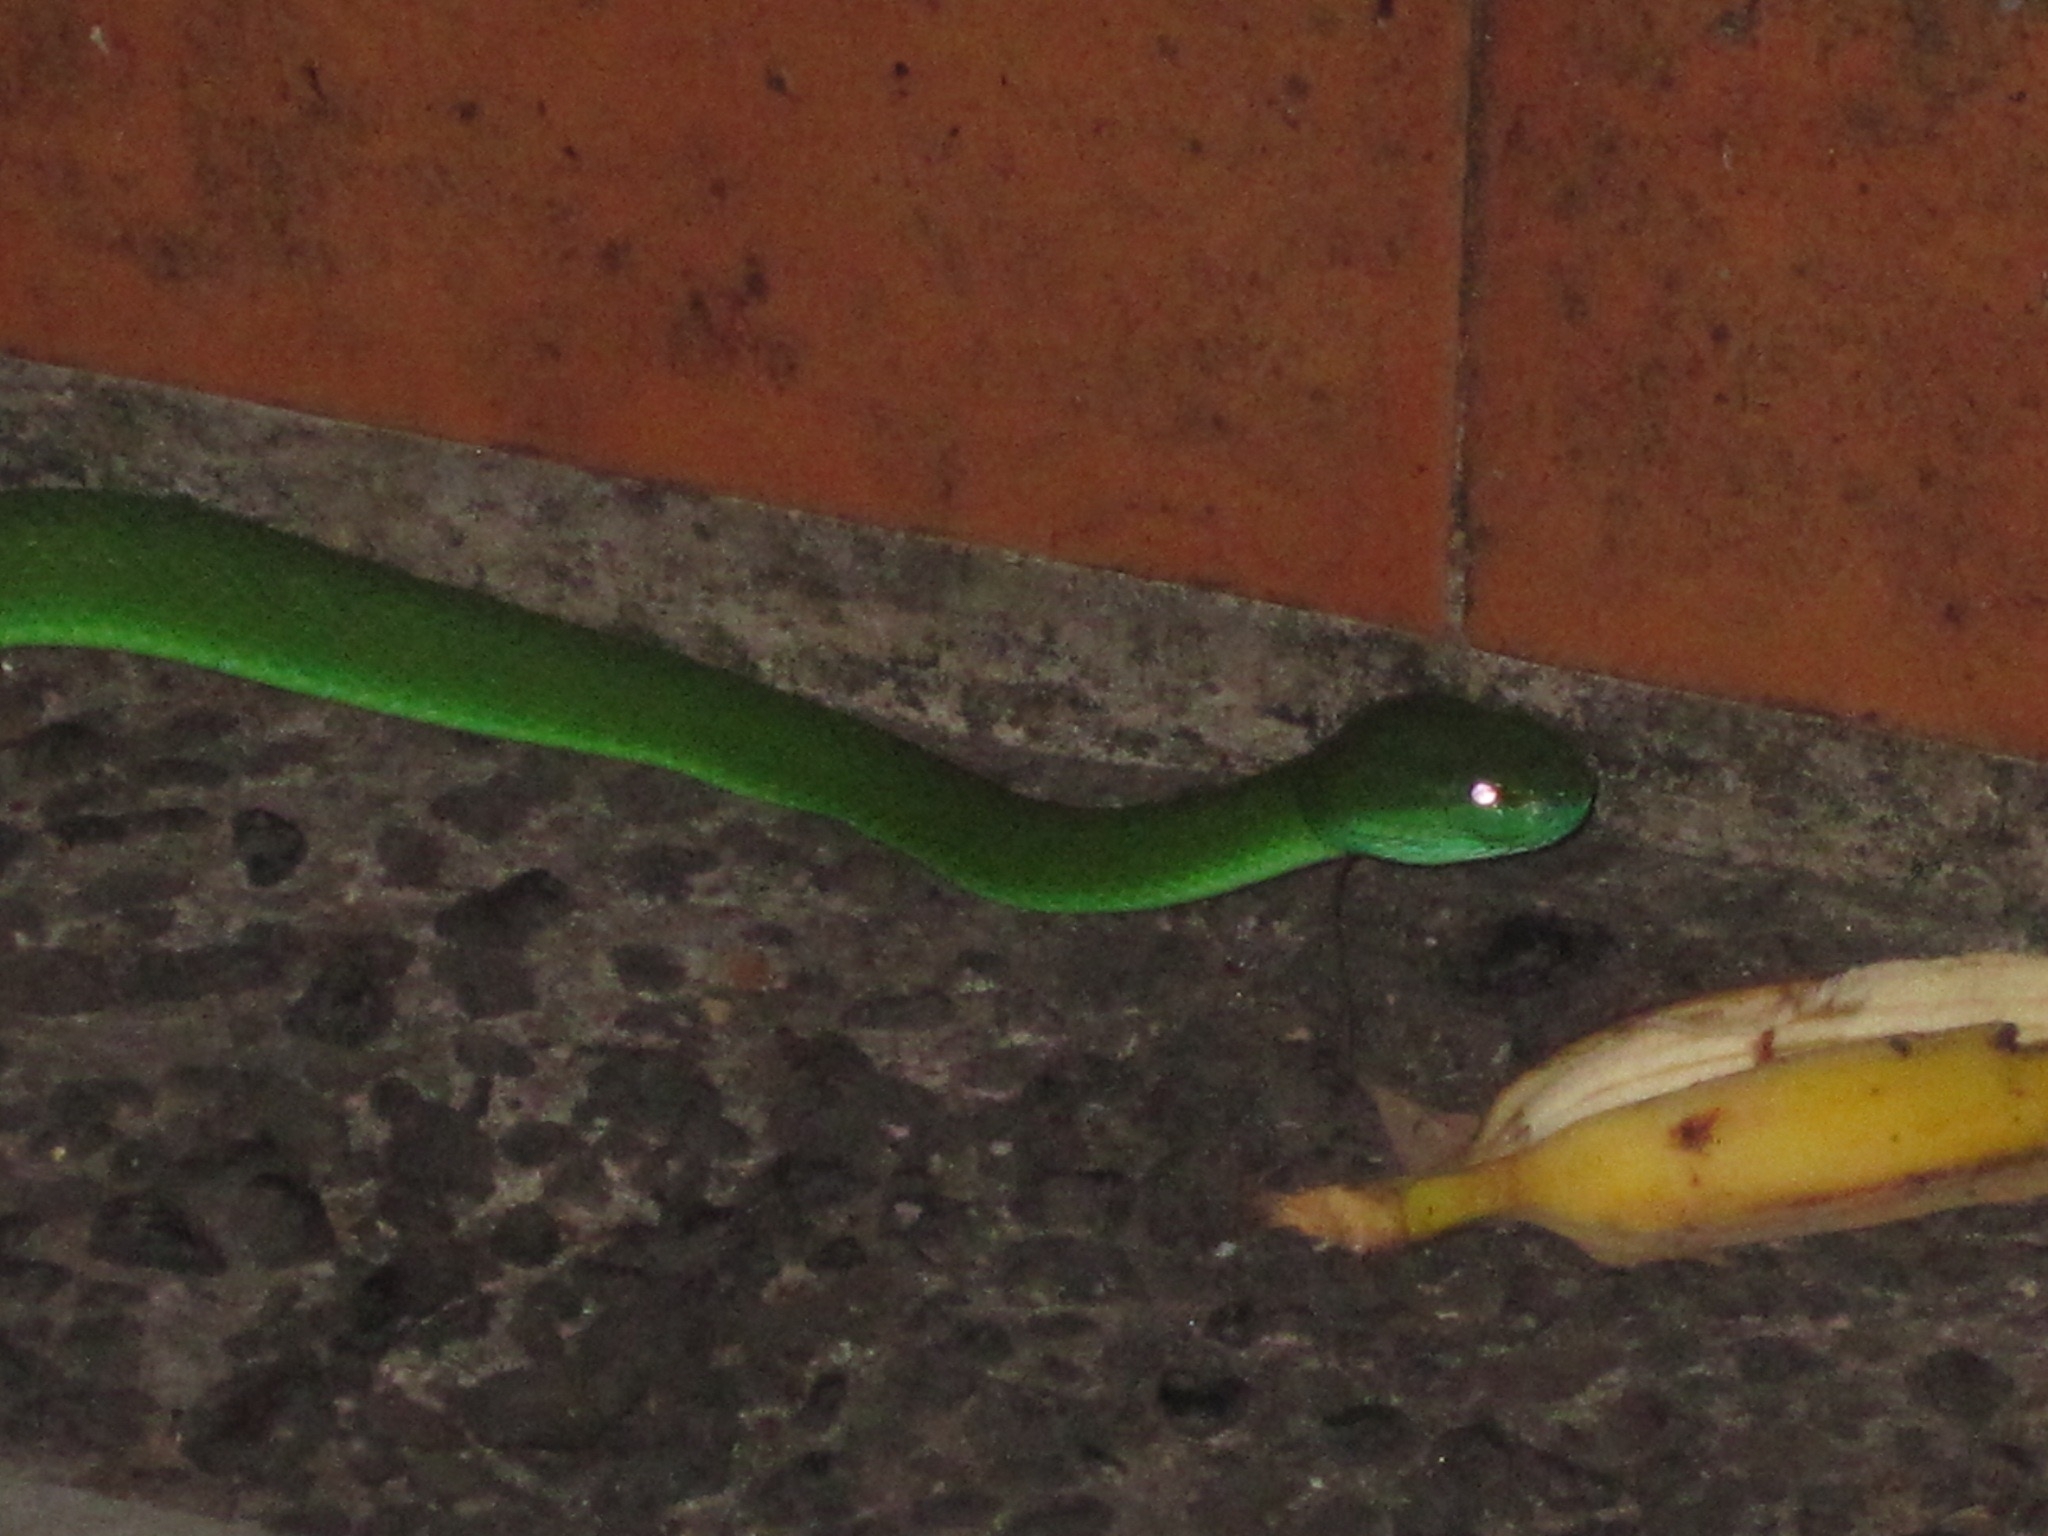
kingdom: Animalia
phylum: Chordata
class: Squamata
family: Viperidae
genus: Trimeresurus
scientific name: Trimeresurus insularis
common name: White-lipped island pitviper
